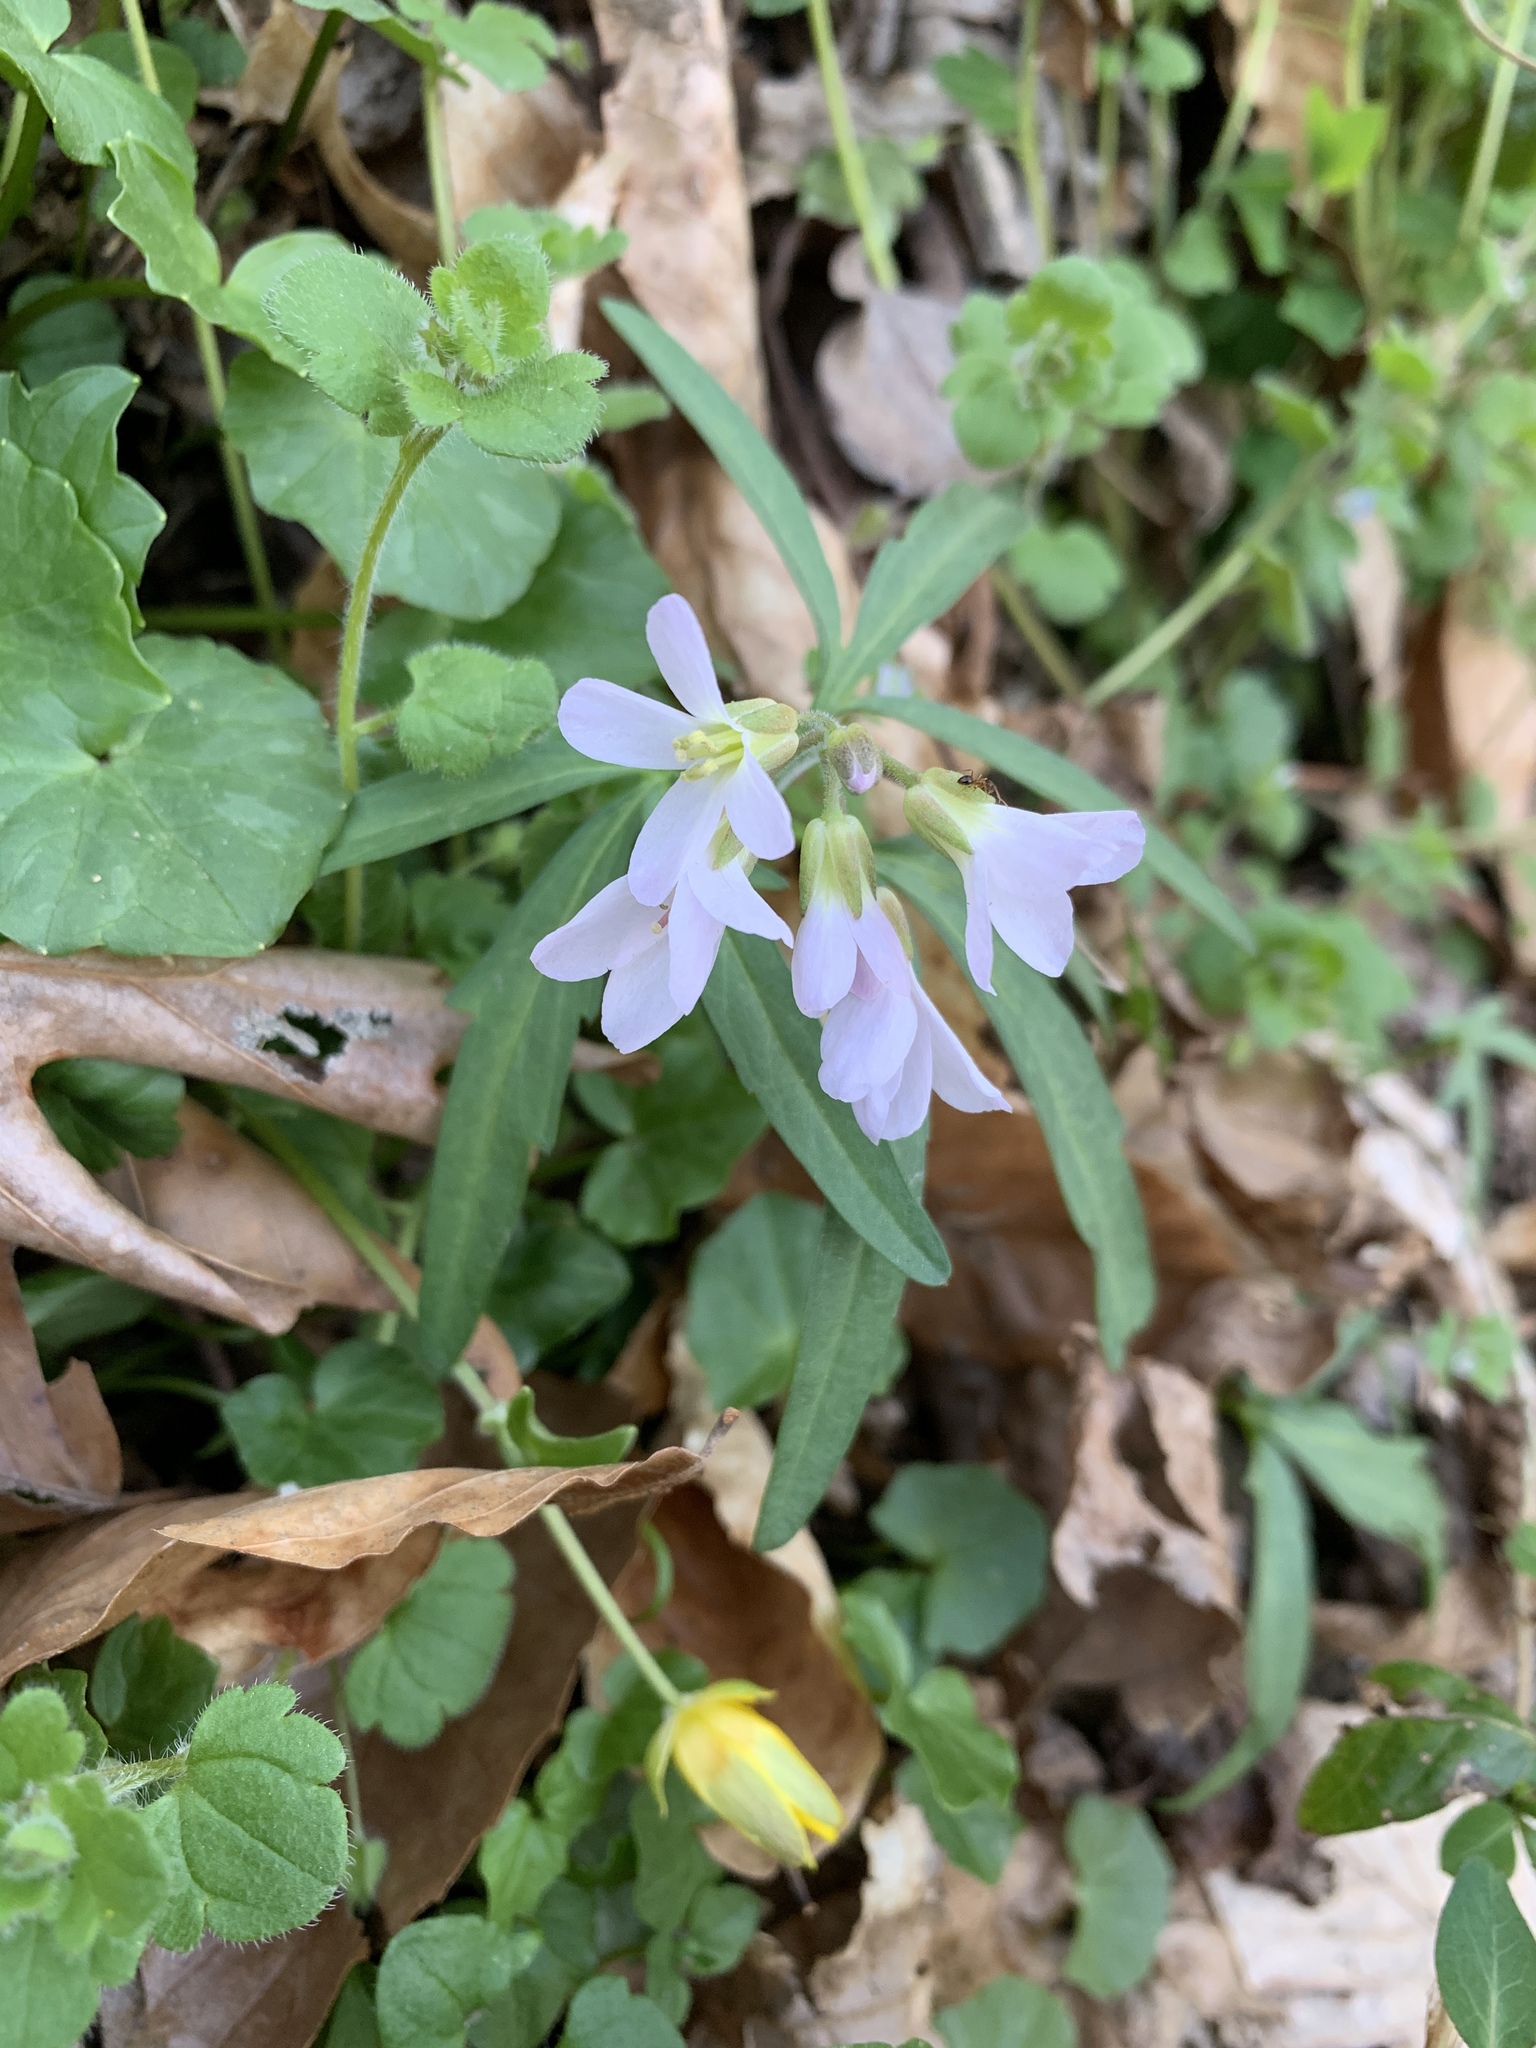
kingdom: Plantae
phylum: Tracheophyta
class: Magnoliopsida
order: Brassicales
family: Brassicaceae
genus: Cardamine
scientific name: Cardamine concatenata
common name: Cut-leaf toothcup
